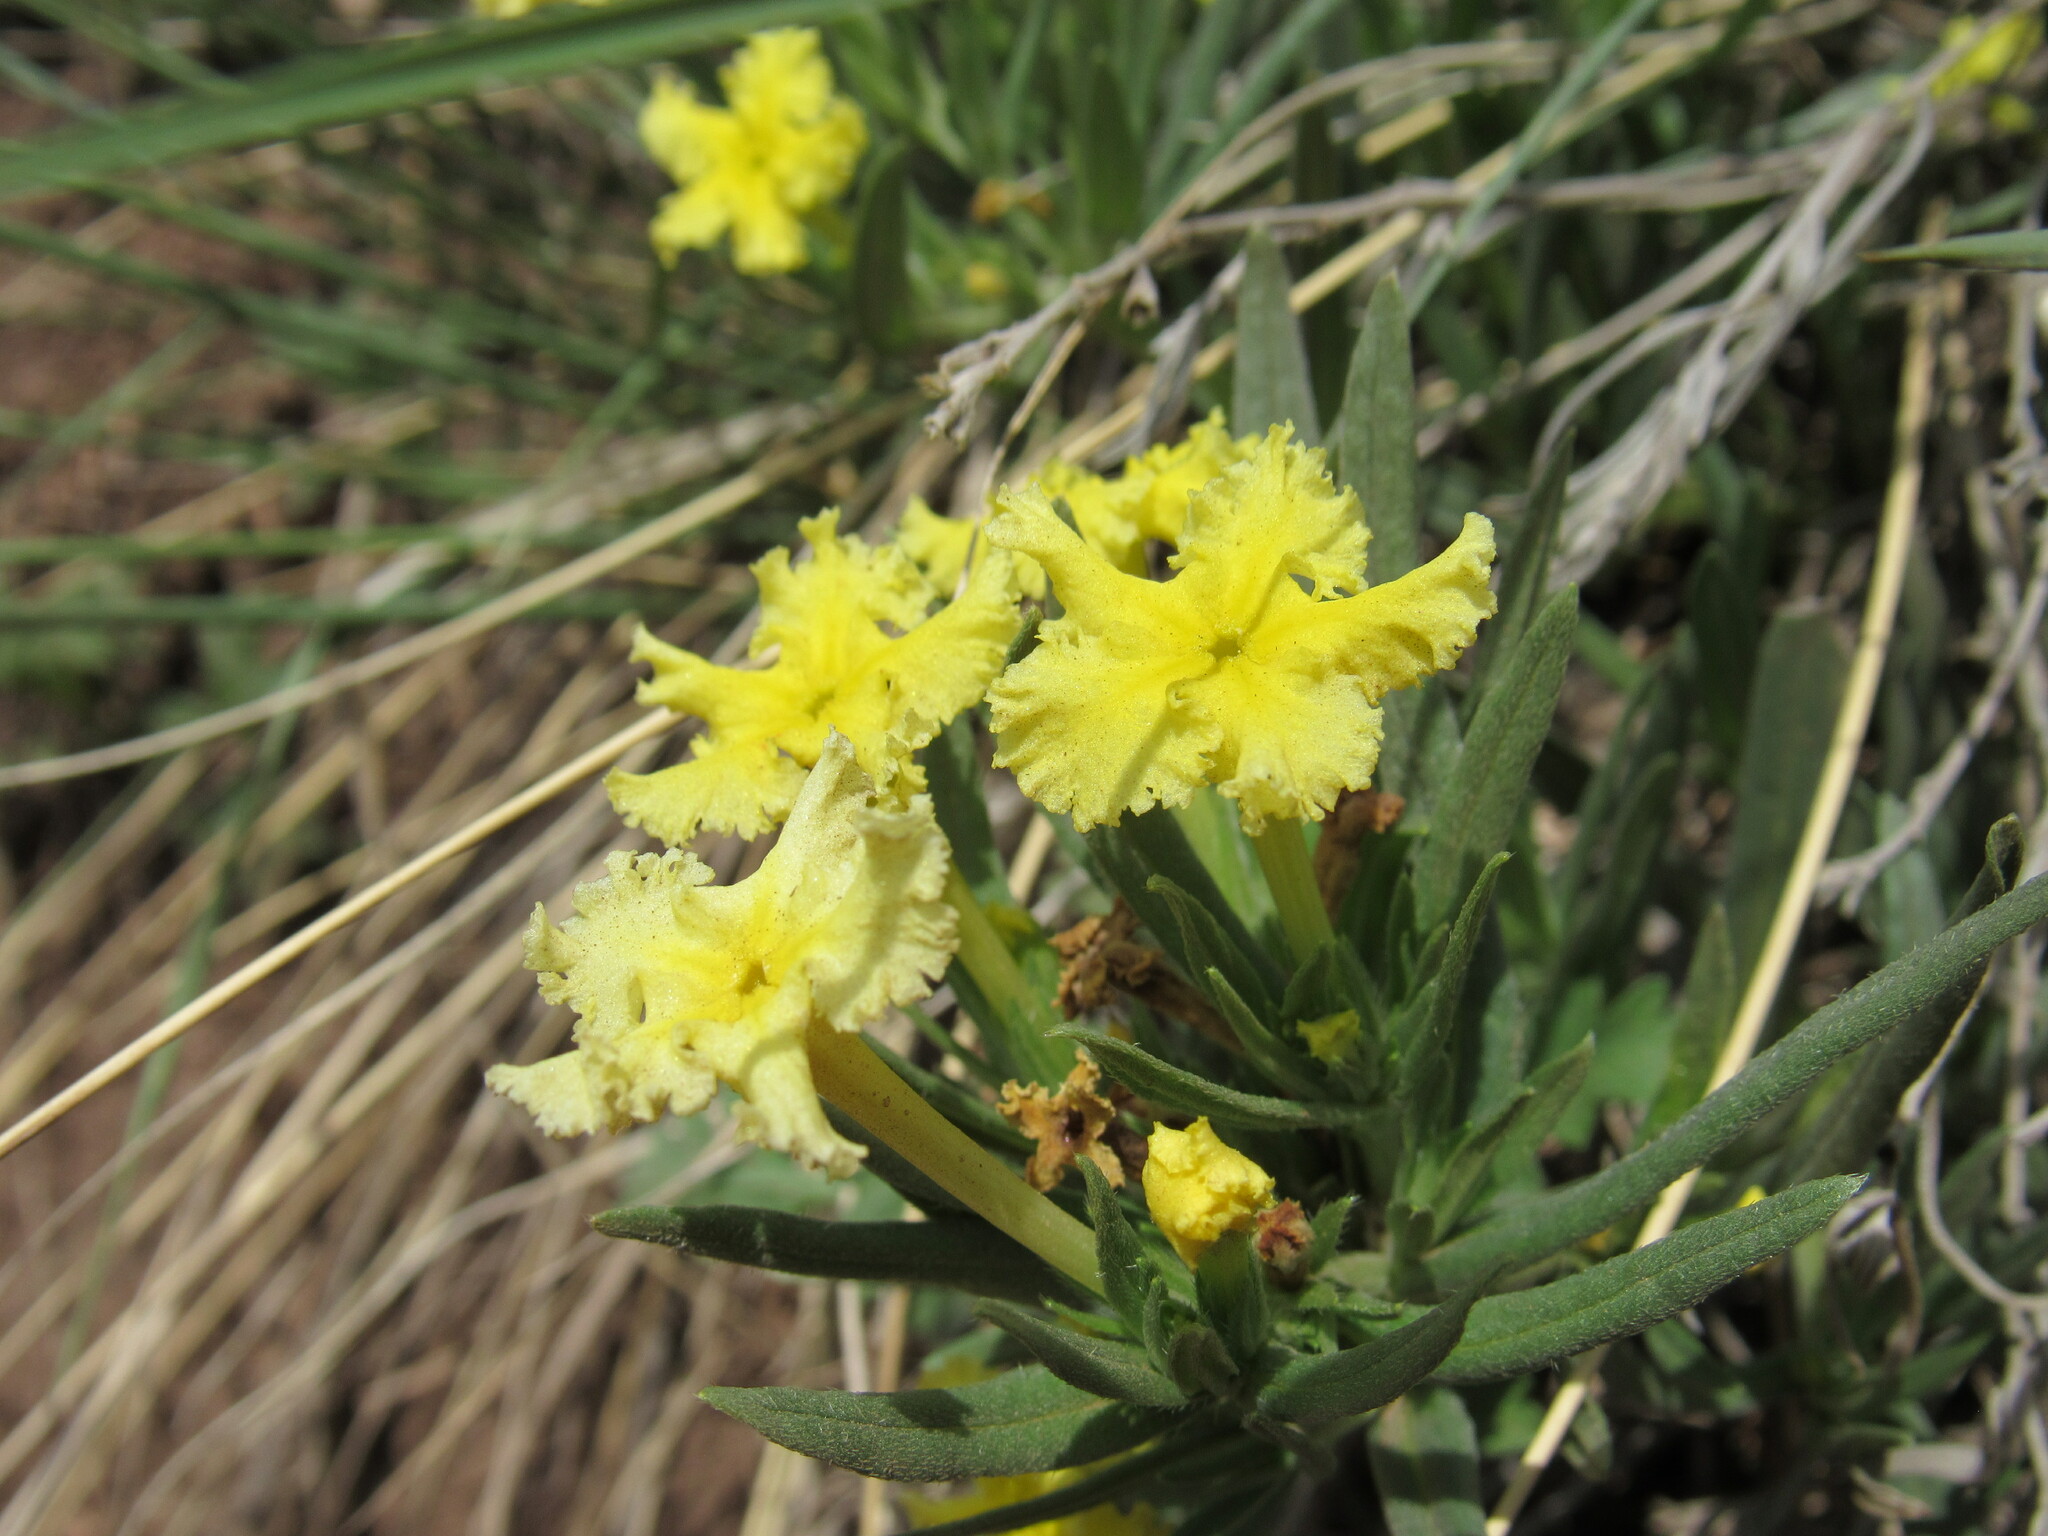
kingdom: Plantae
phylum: Tracheophyta
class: Magnoliopsida
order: Boraginales
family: Boraginaceae
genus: Lithospermum
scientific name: Lithospermum incisum
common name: Fringed gromwell
